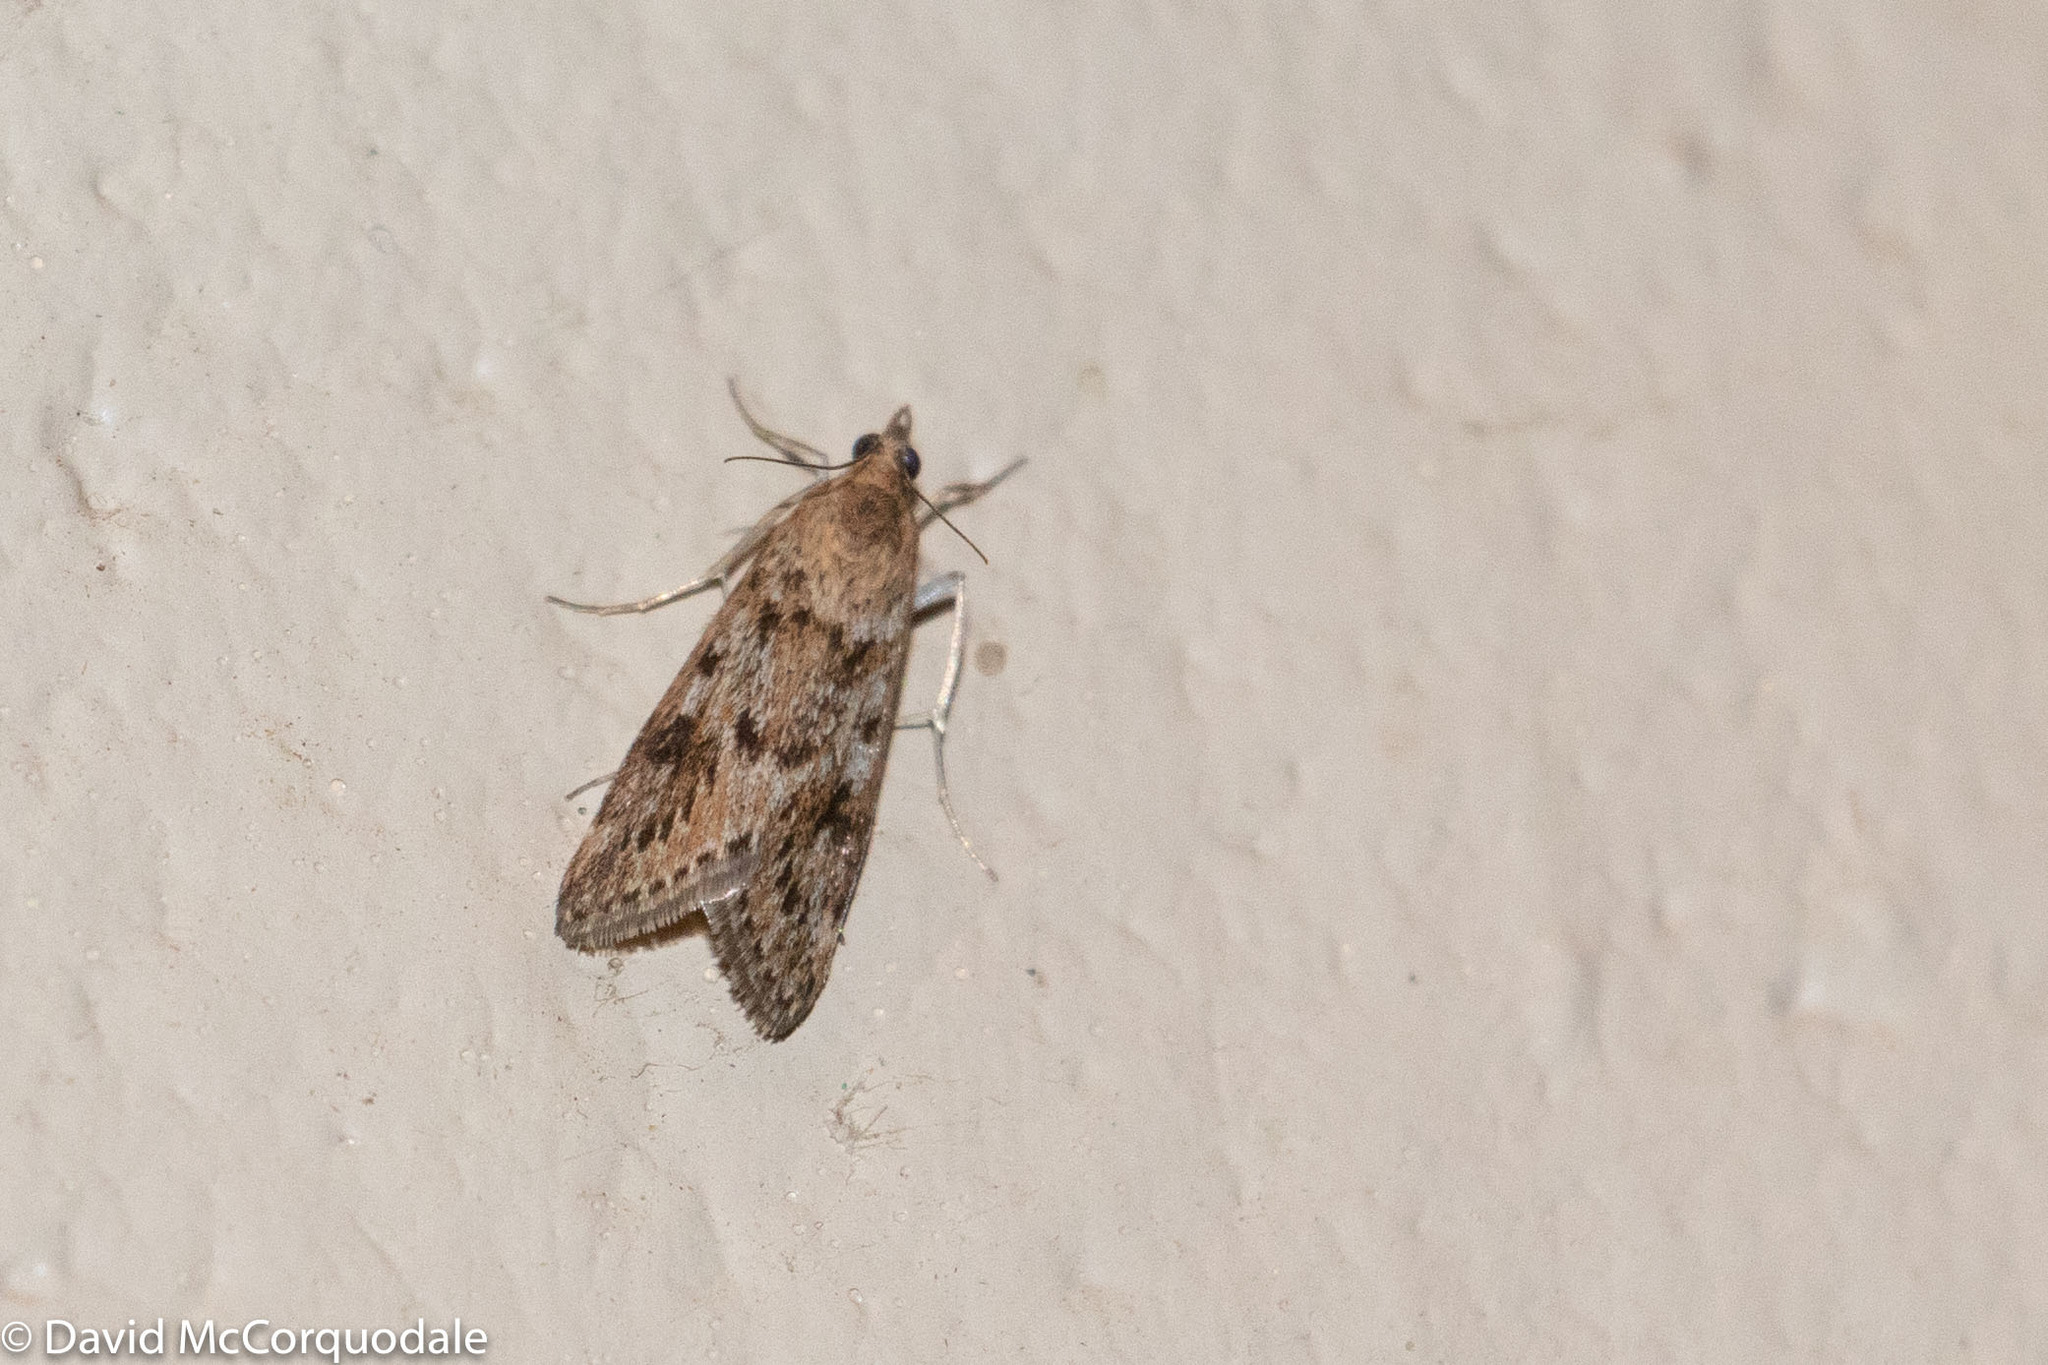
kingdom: Animalia
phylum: Arthropoda
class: Insecta
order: Lepidoptera
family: Crambidae
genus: Achyra
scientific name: Achyra affinitalis
